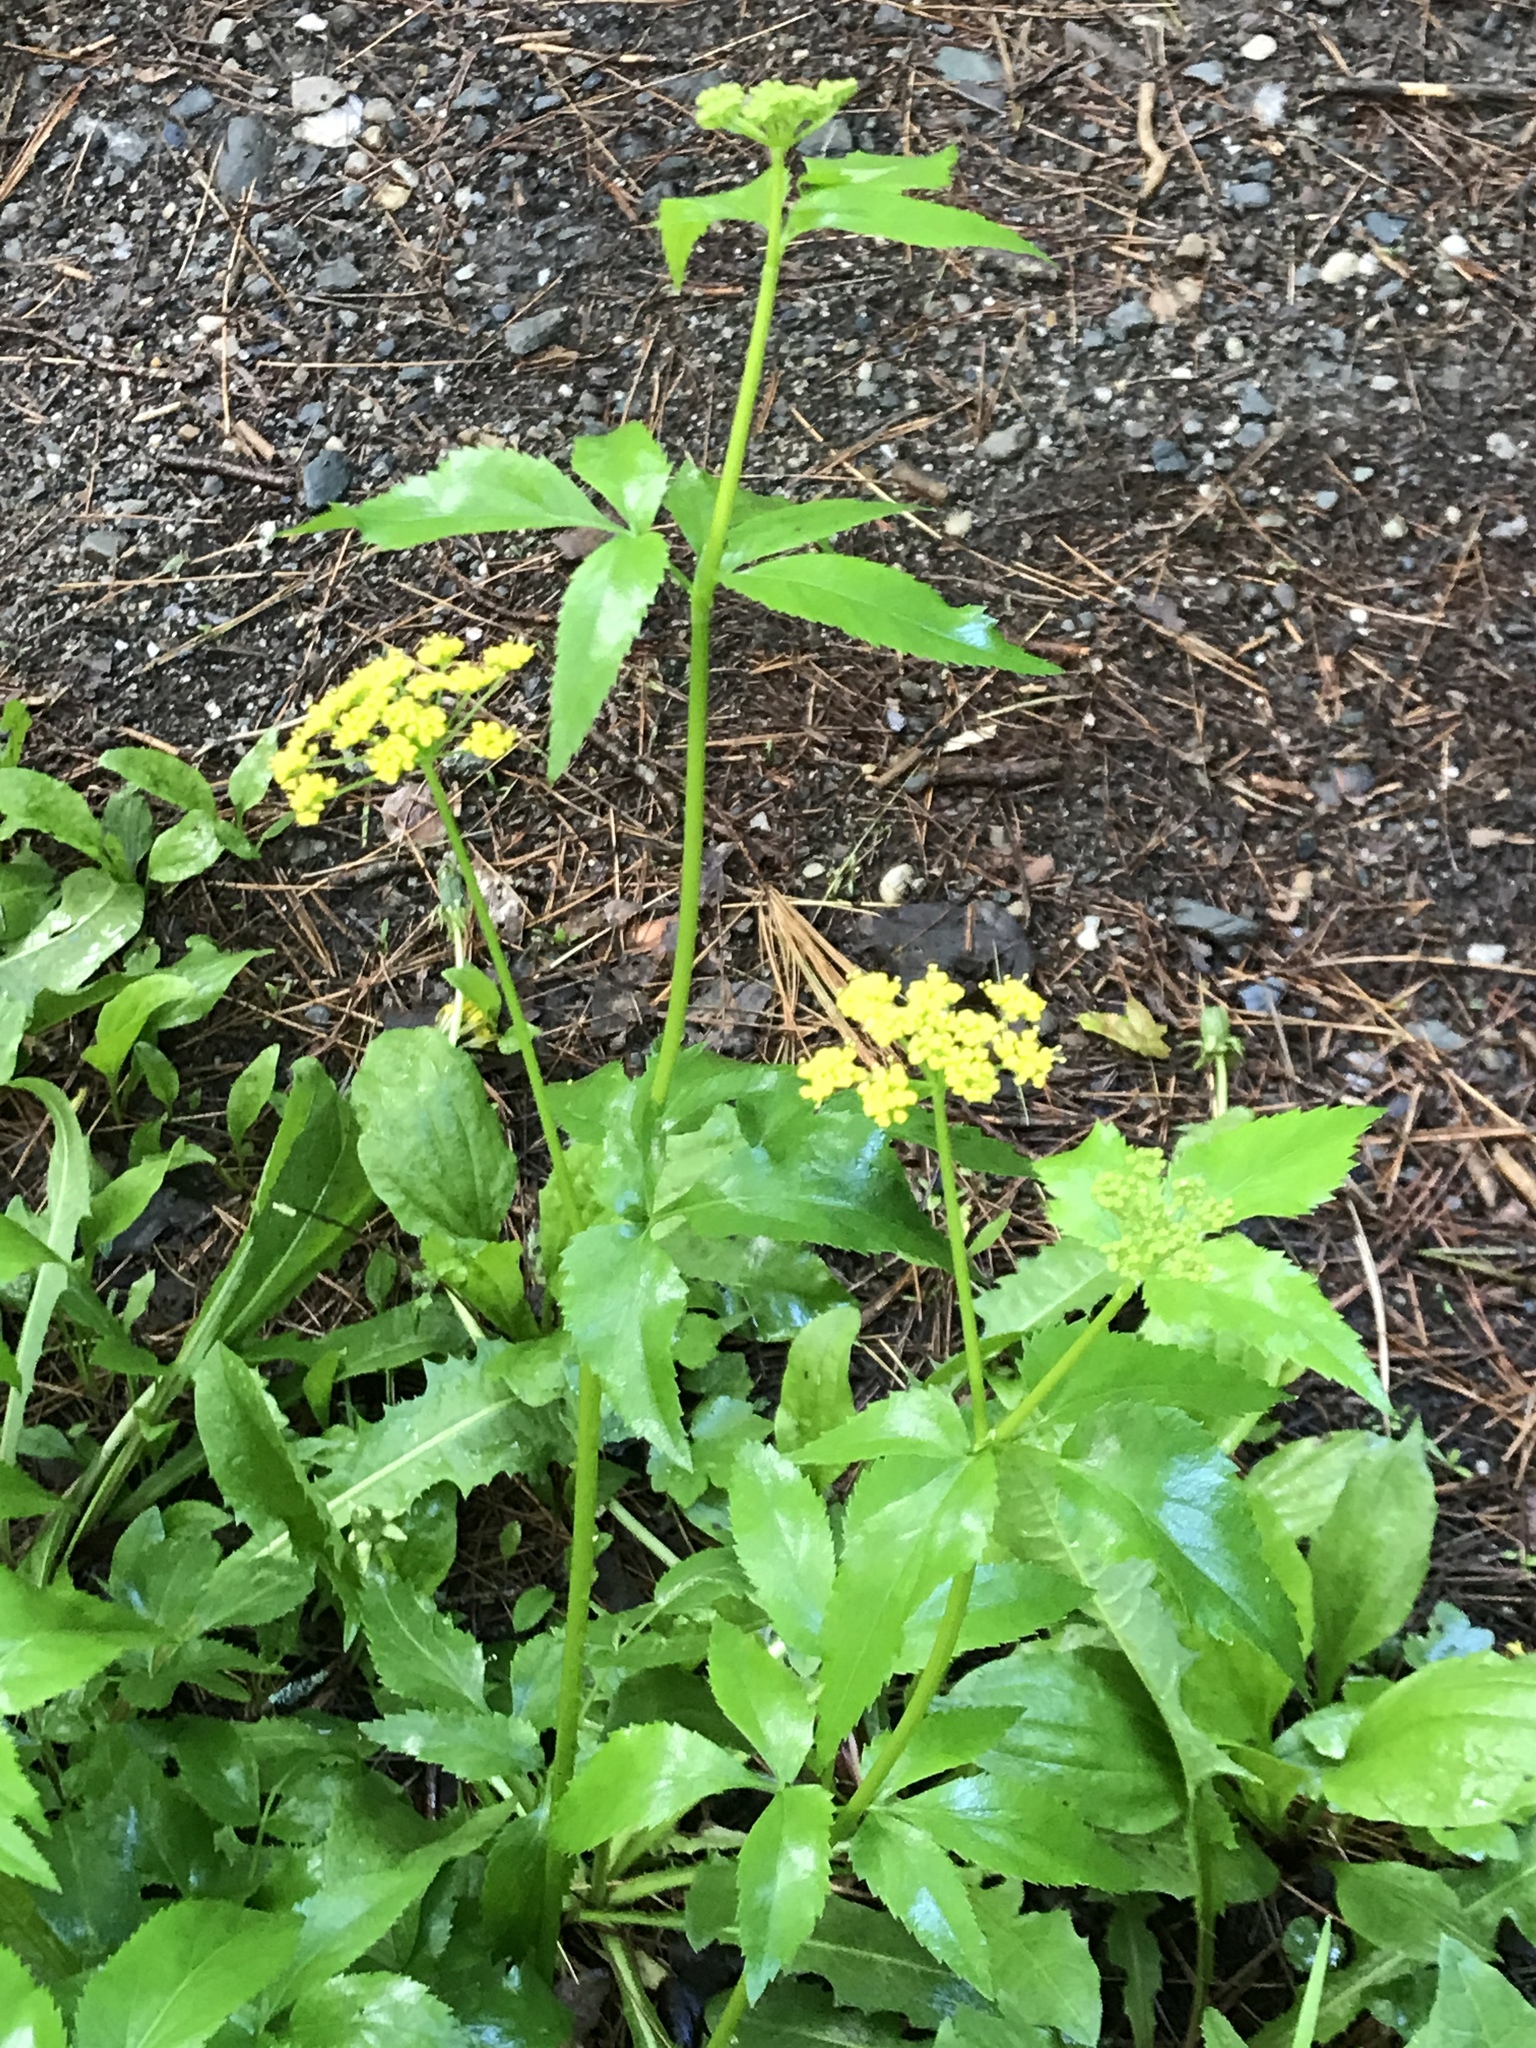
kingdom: Plantae
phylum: Tracheophyta
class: Magnoliopsida
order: Apiales
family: Apiaceae
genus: Zizia
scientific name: Zizia aurea
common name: Golden alexanders
